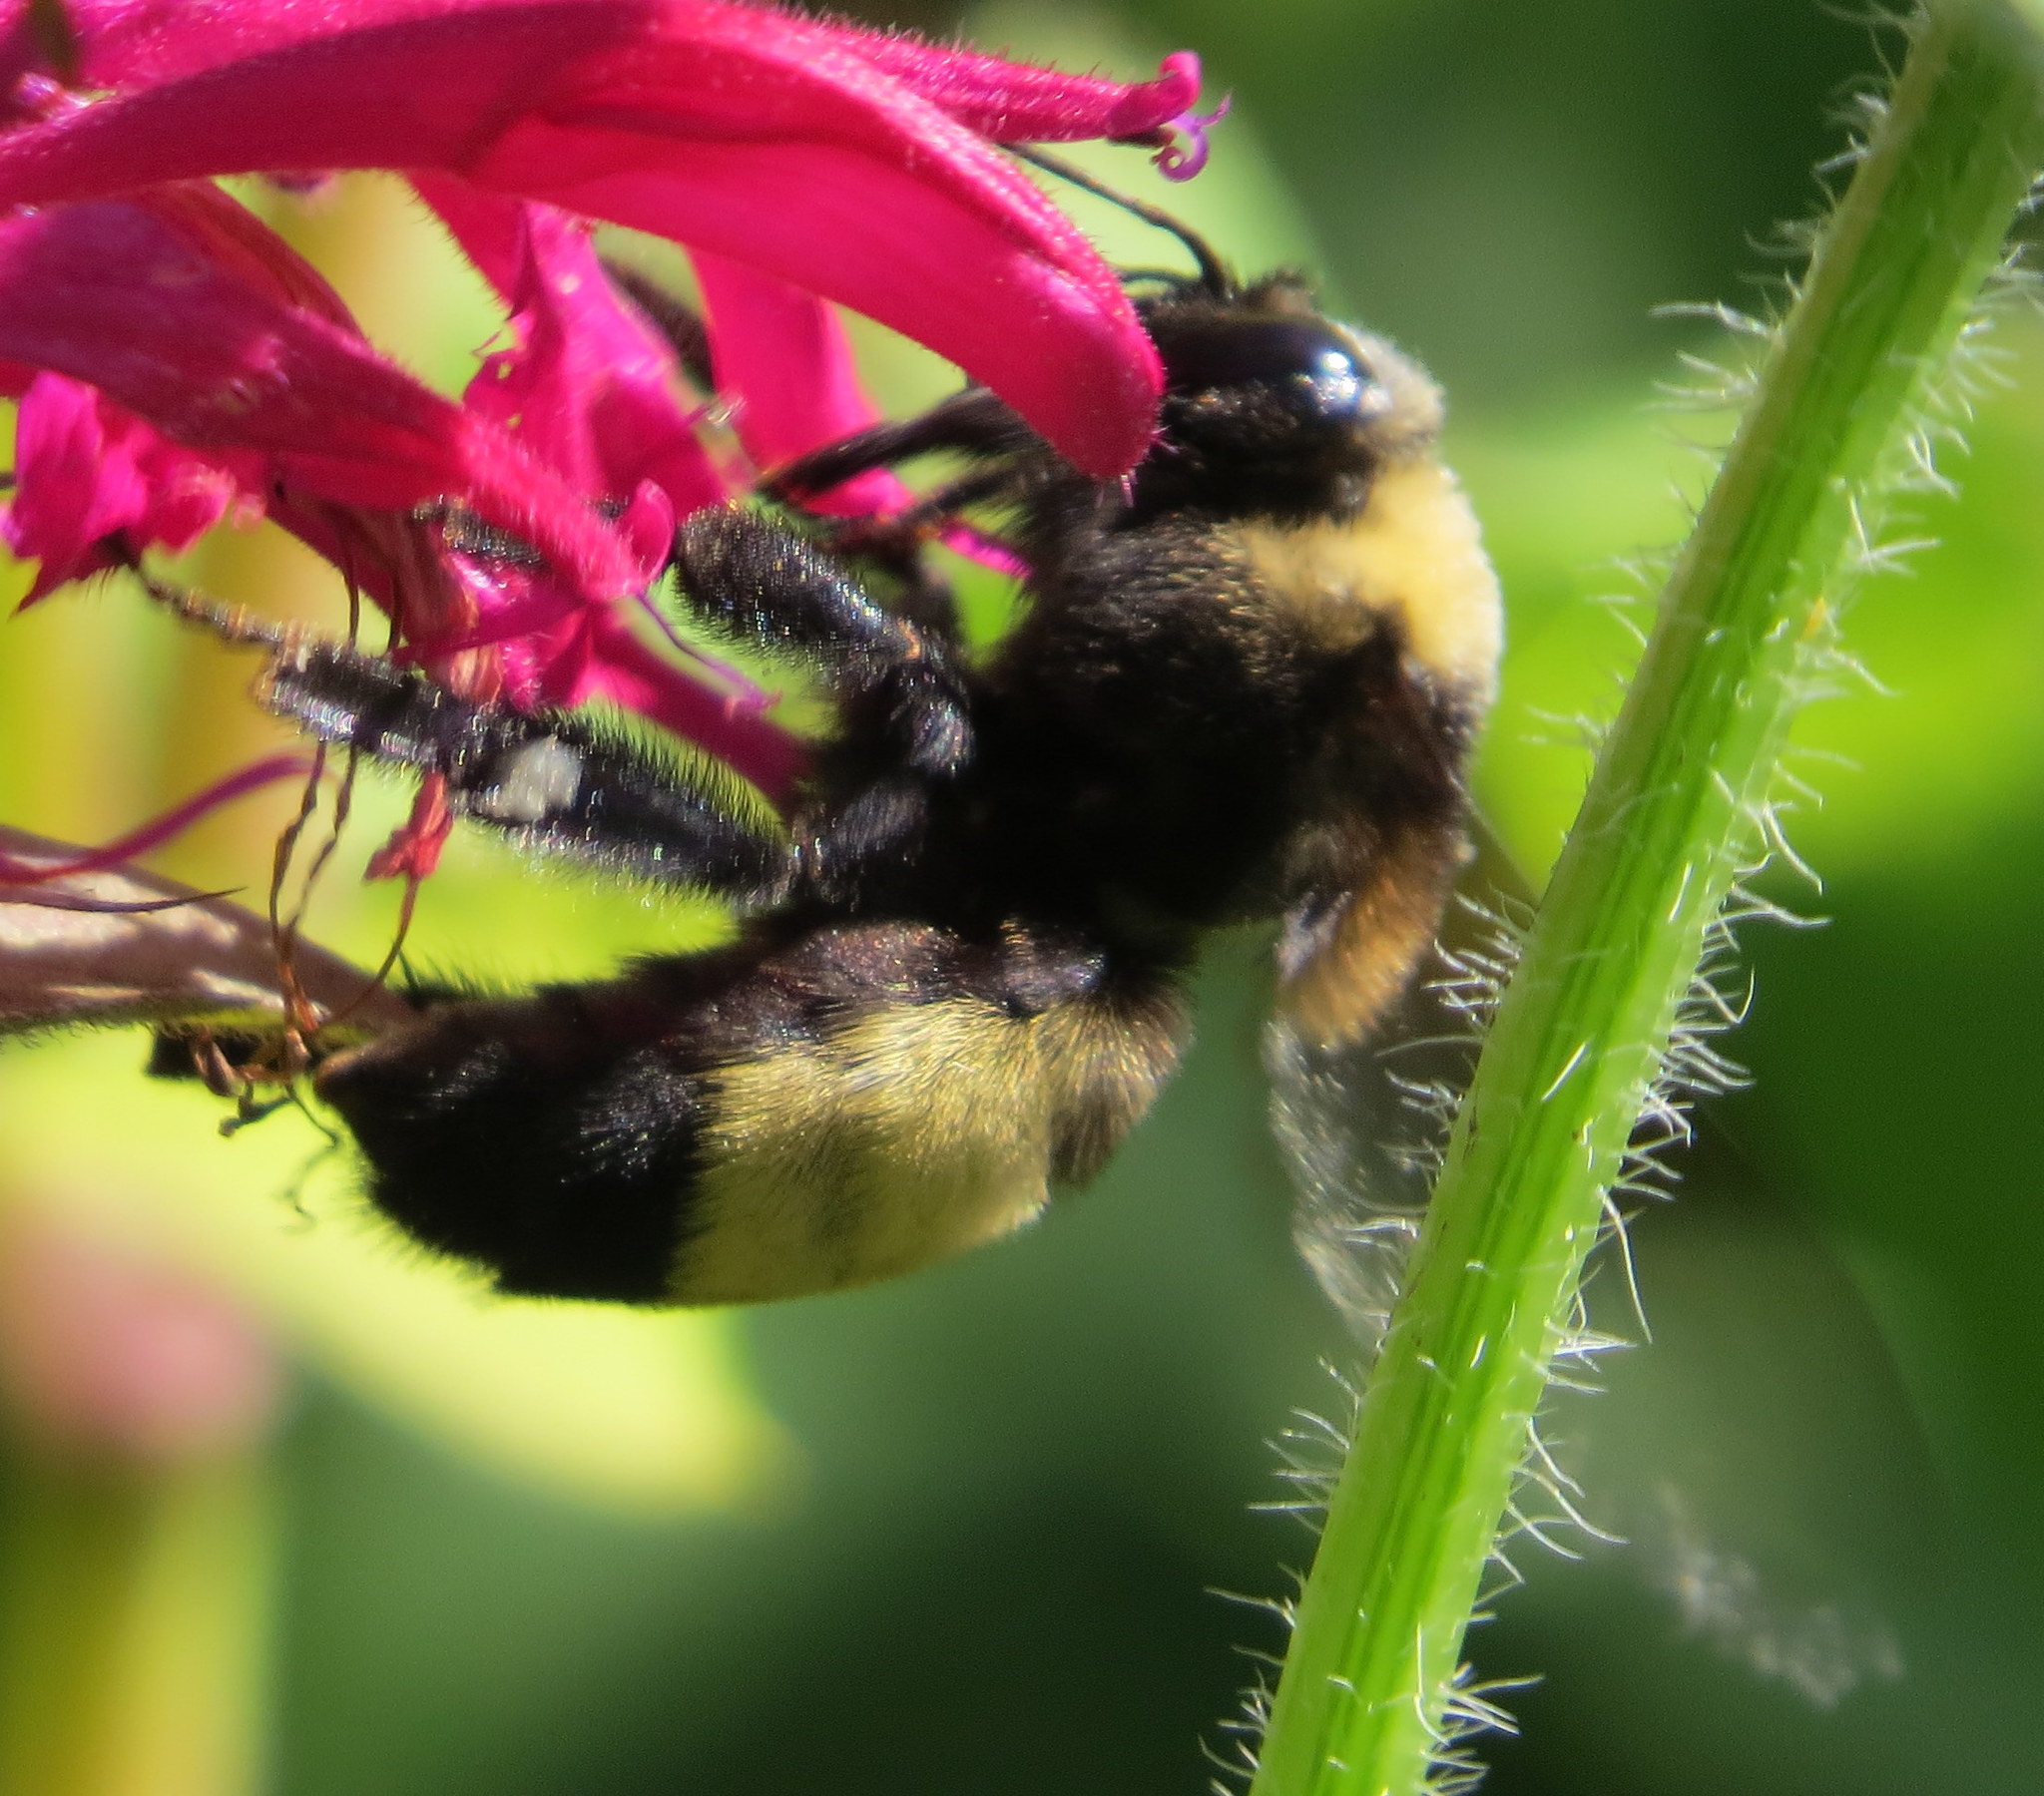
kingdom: Animalia
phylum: Arthropoda
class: Insecta
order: Hymenoptera
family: Apidae
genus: Bombus
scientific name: Bombus auricomus
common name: Black and gold bumble bee
